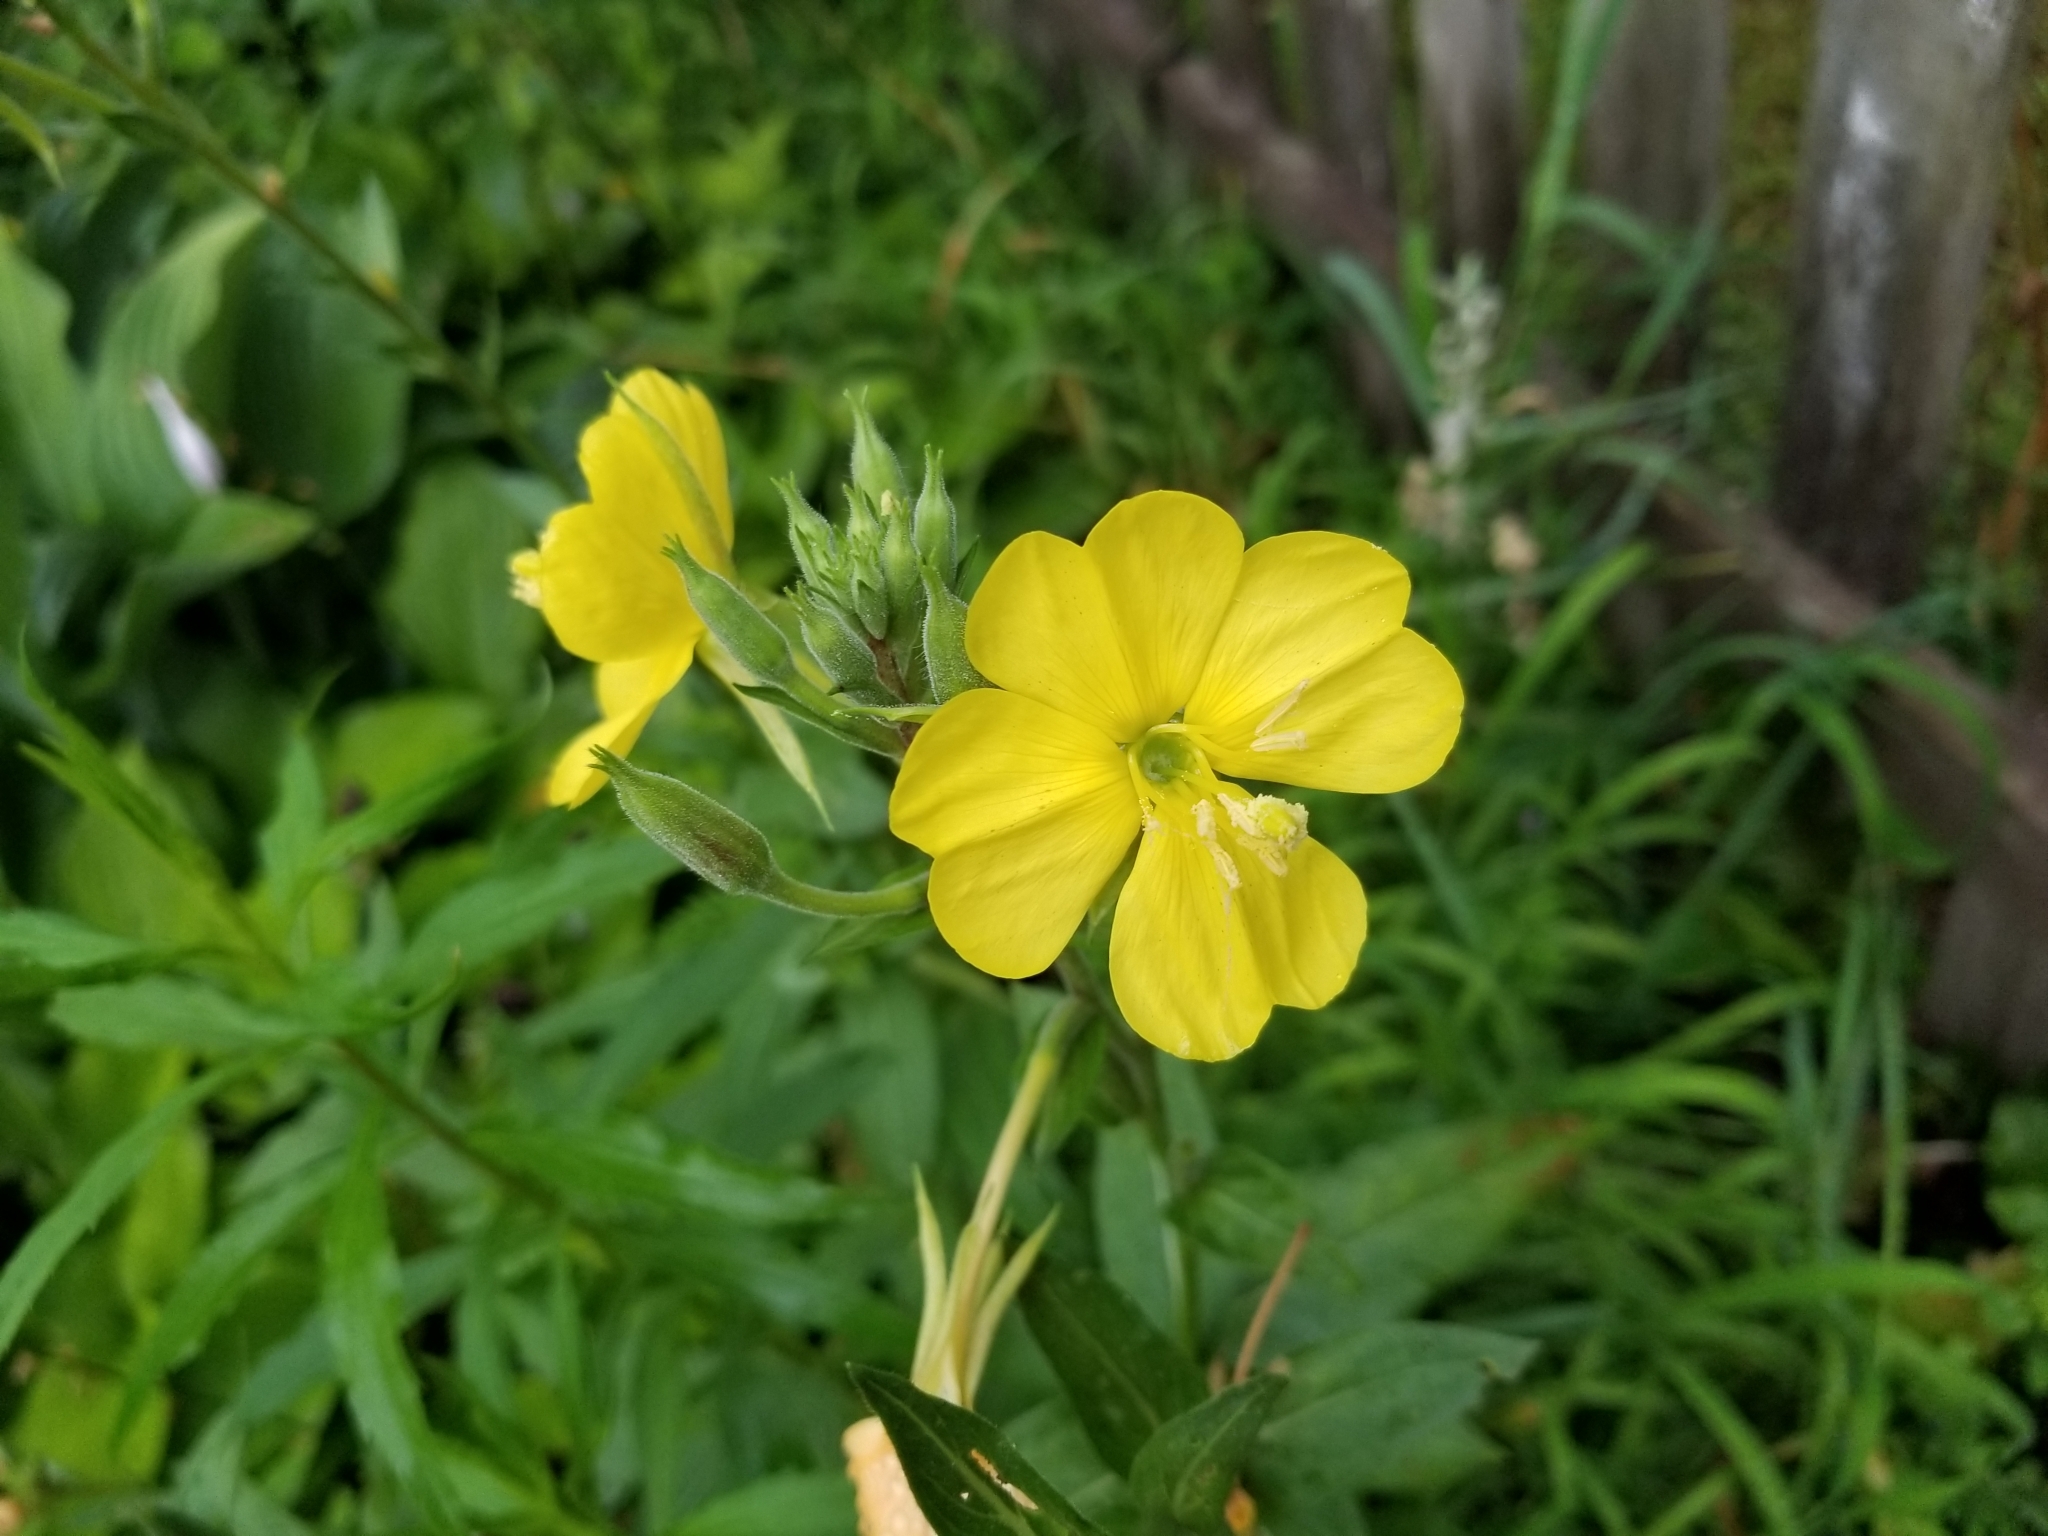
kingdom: Plantae
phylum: Tracheophyta
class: Magnoliopsida
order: Myrtales
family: Onagraceae
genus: Oenothera
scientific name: Oenothera biennis
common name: Common evening-primrose
